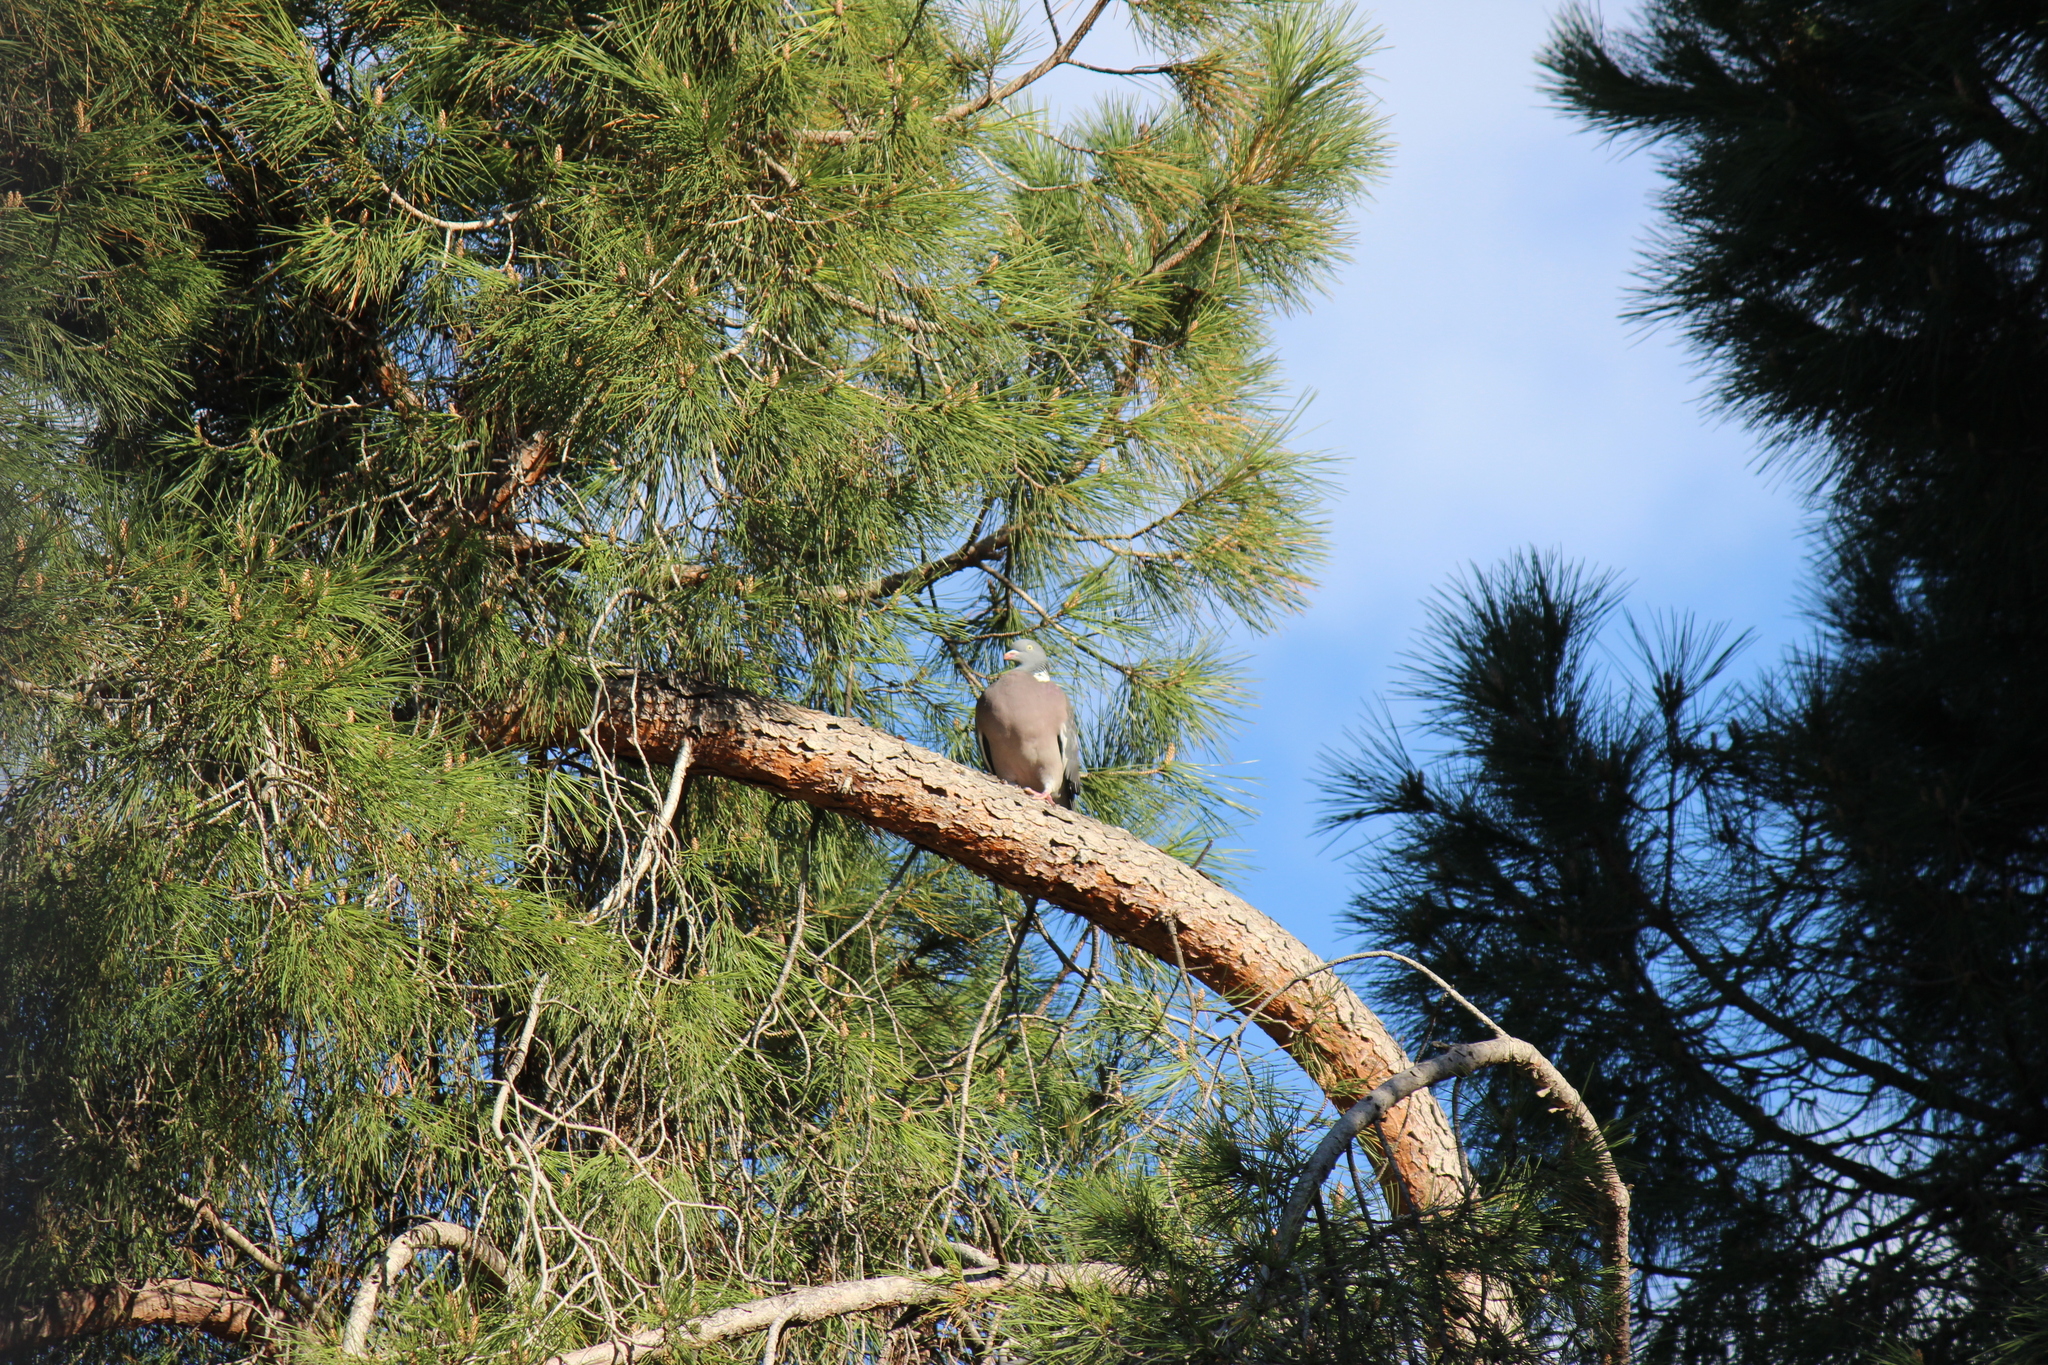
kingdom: Animalia
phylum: Chordata
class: Aves
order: Columbiformes
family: Columbidae
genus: Columba
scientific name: Columba palumbus
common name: Common wood pigeon
